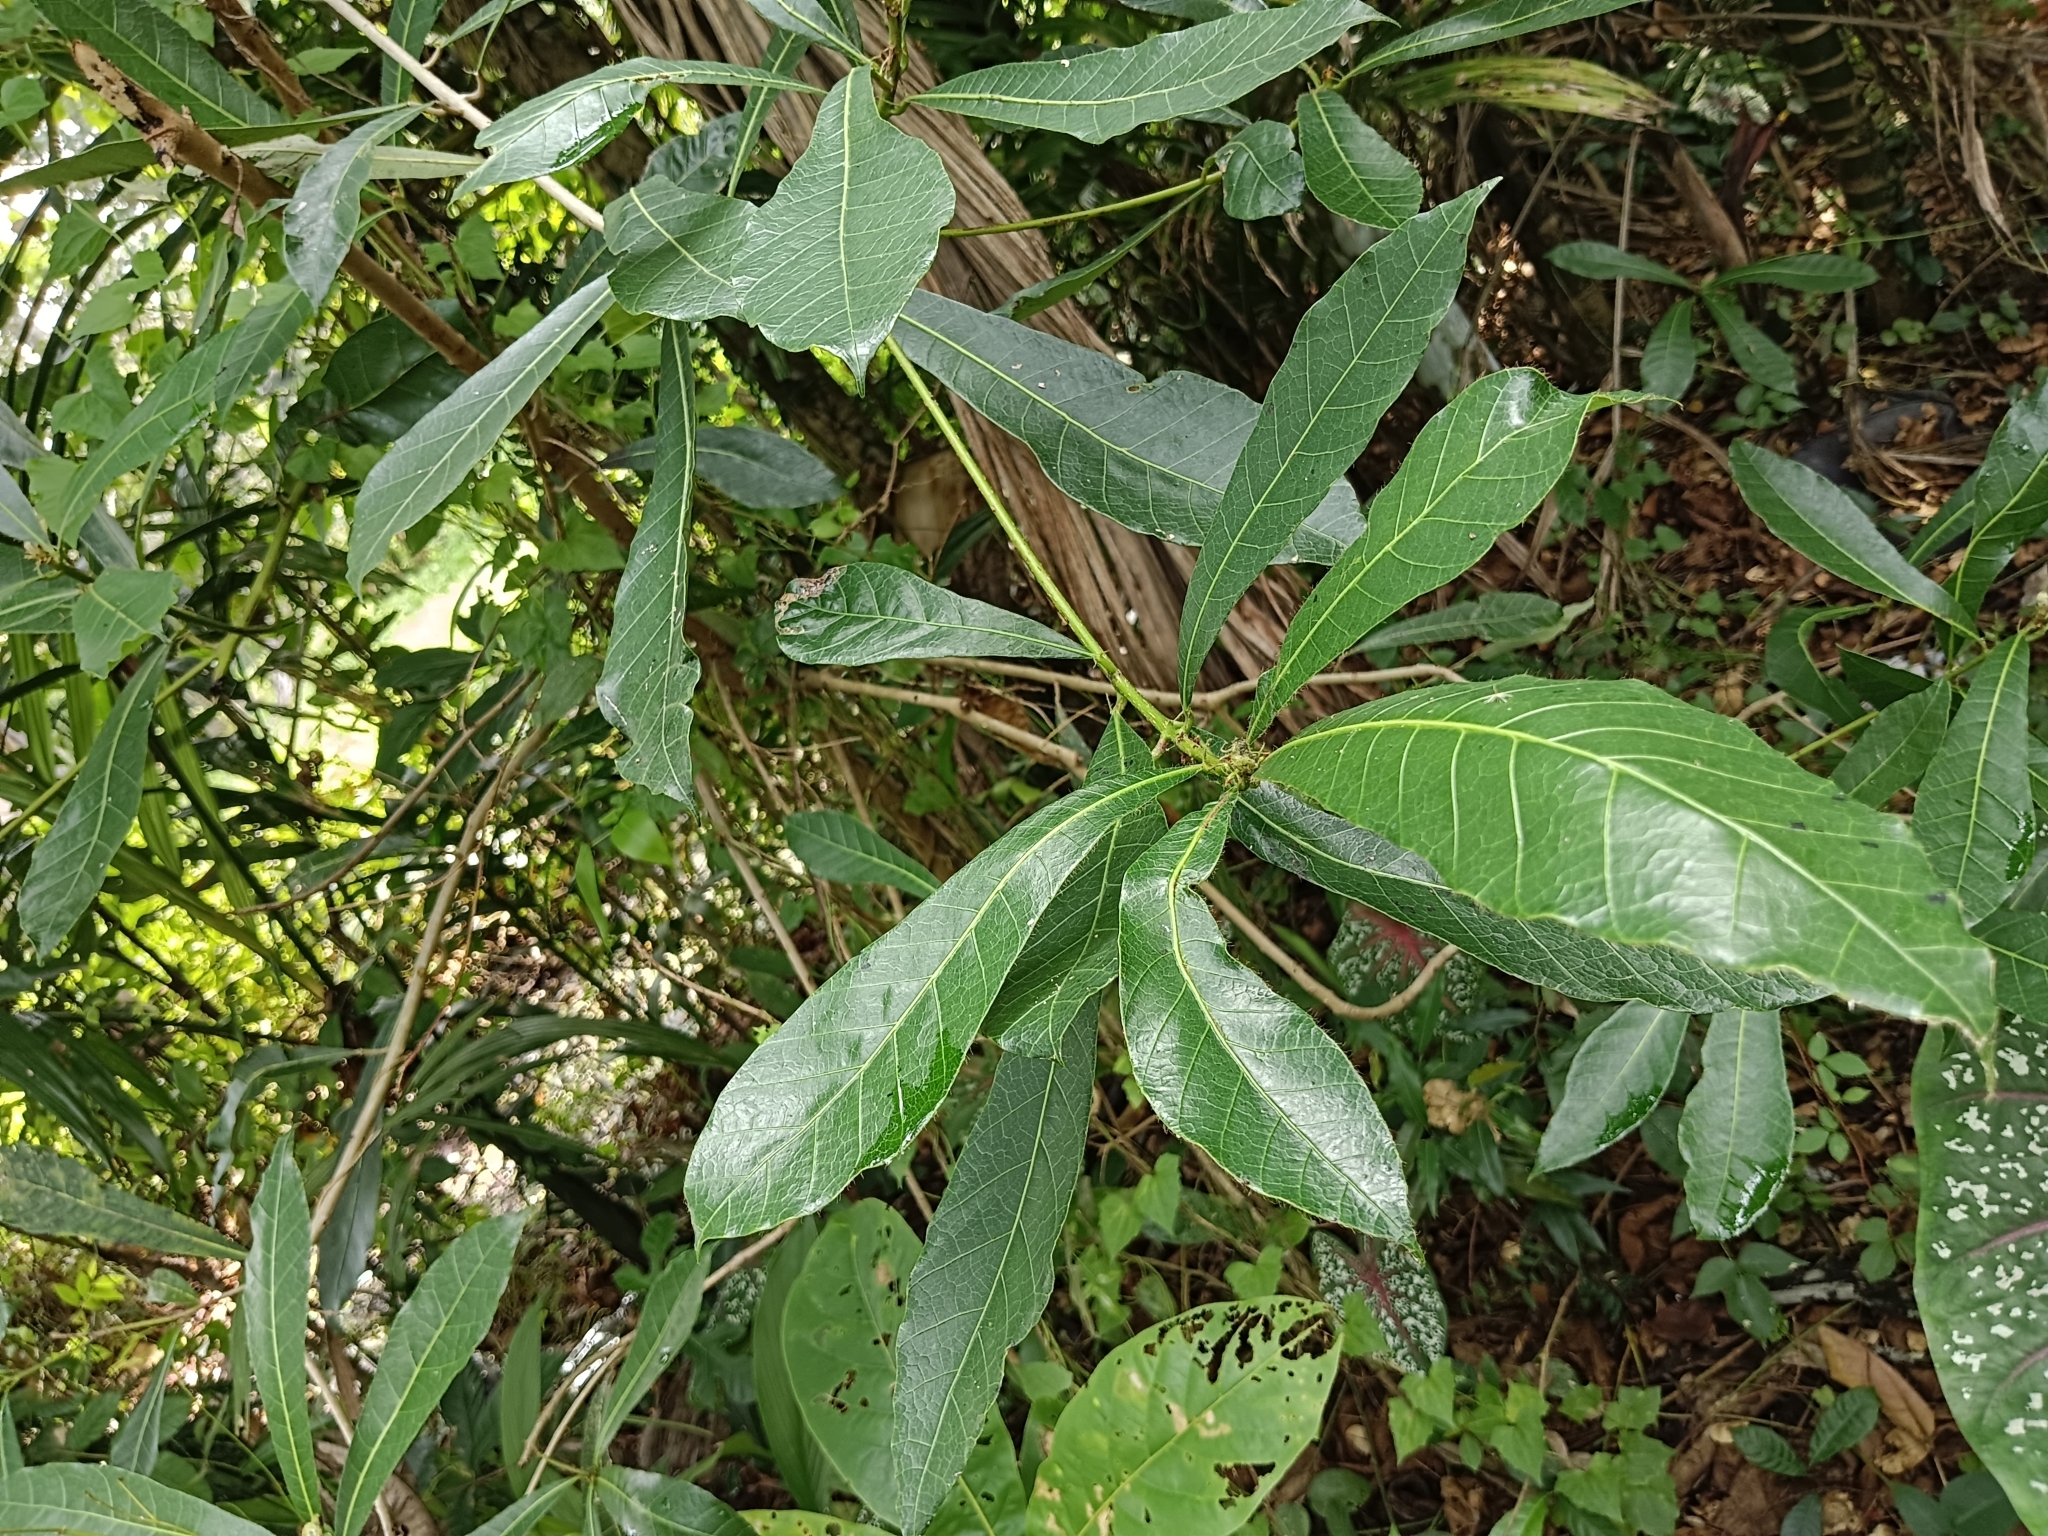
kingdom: Plantae
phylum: Tracheophyta
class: Magnoliopsida
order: Sapindales
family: Anacardiaceae
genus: Holigarna
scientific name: Holigarna arnottiana
